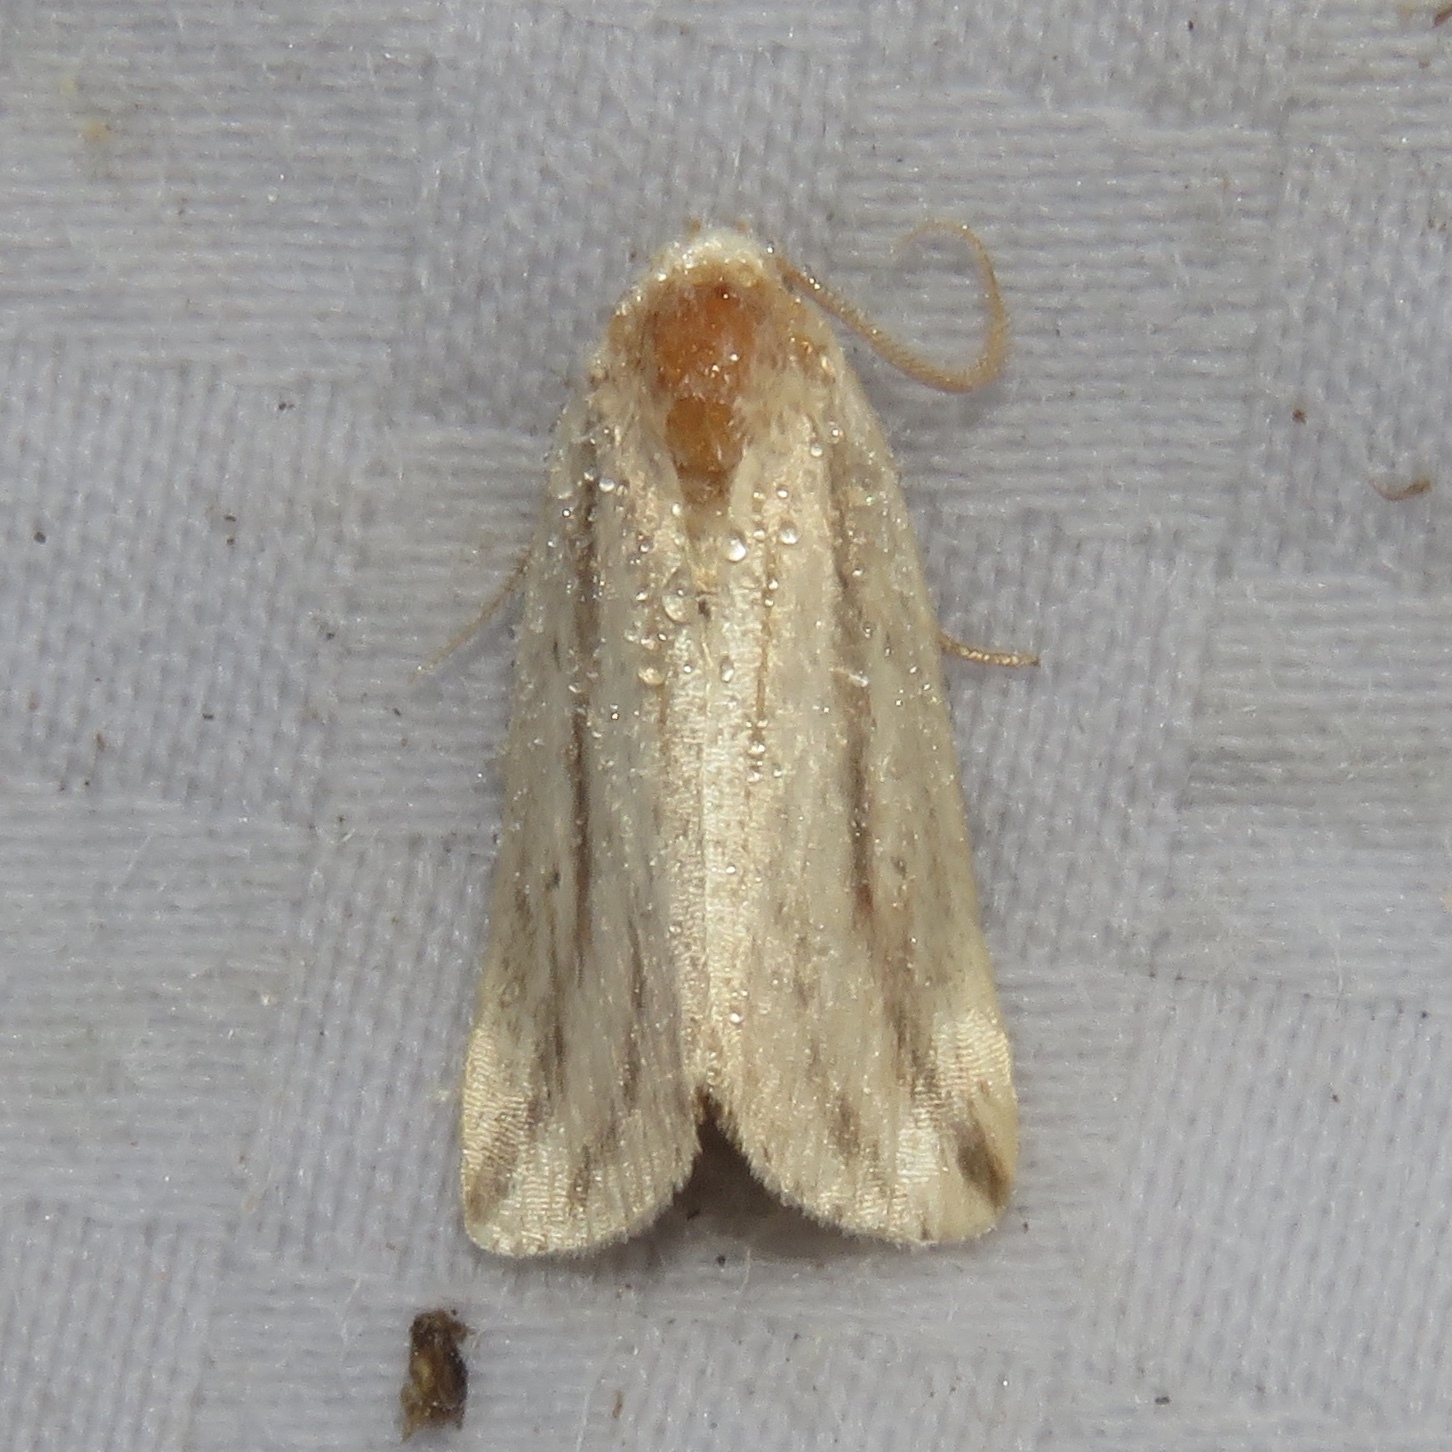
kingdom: Animalia
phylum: Arthropoda
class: Insecta
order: Lepidoptera
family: Noctuidae
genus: Amolita
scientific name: Amolita fessa
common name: Feeble grass moth
